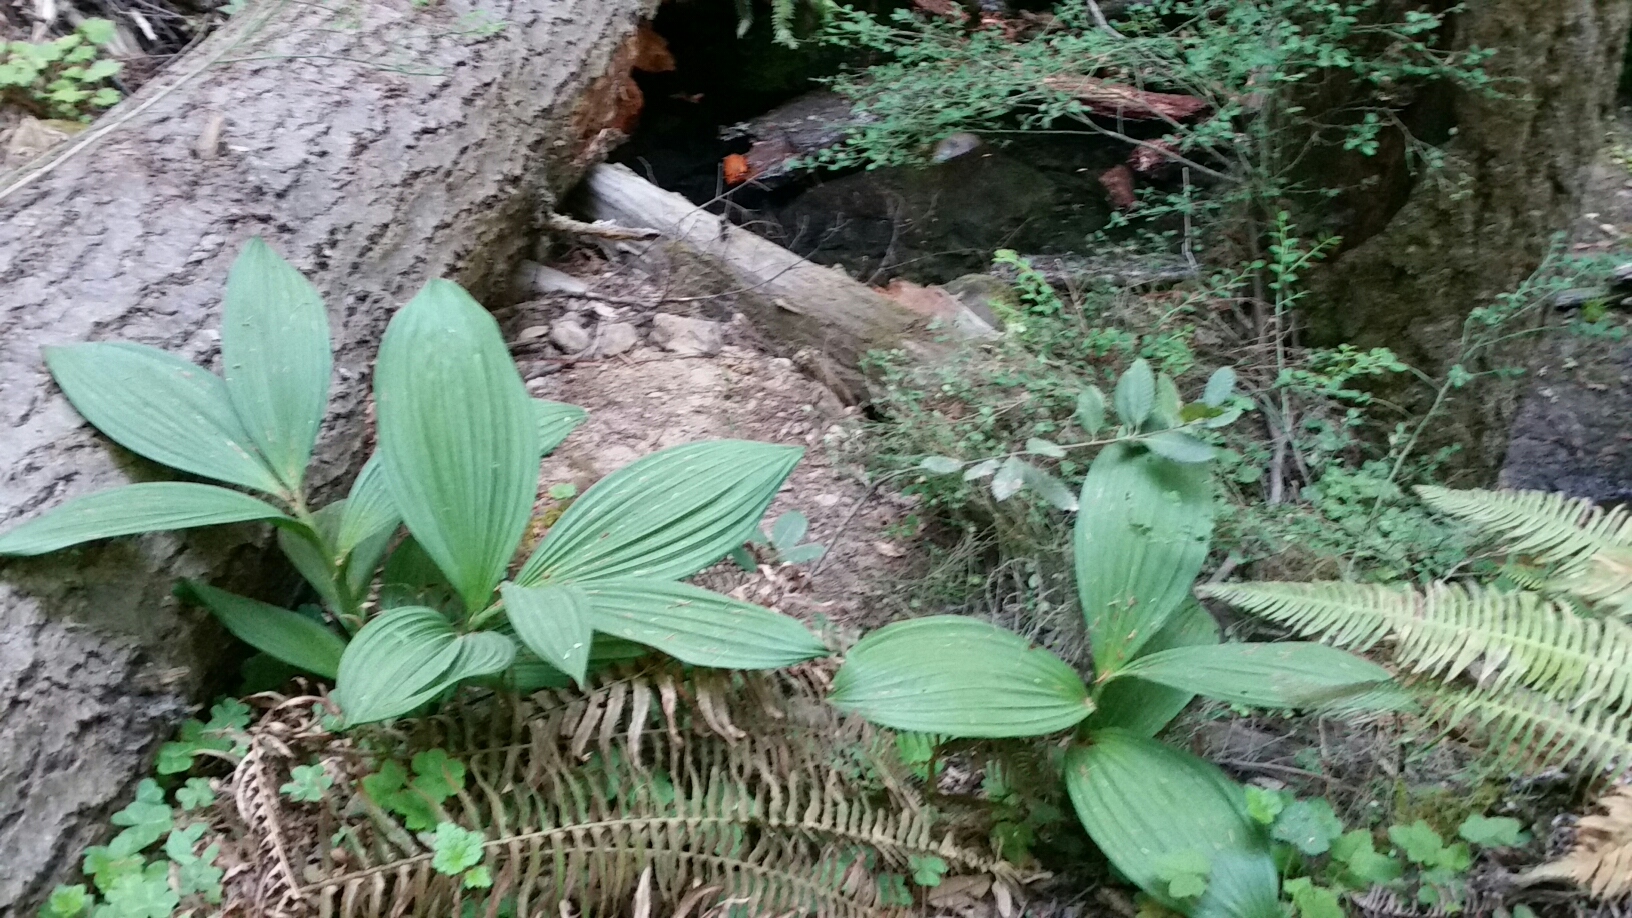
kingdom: Plantae
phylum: Tracheophyta
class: Liliopsida
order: Liliales
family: Melanthiaceae
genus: Veratrum
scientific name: Veratrum fimbriatum
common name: Fringe false hellobore
